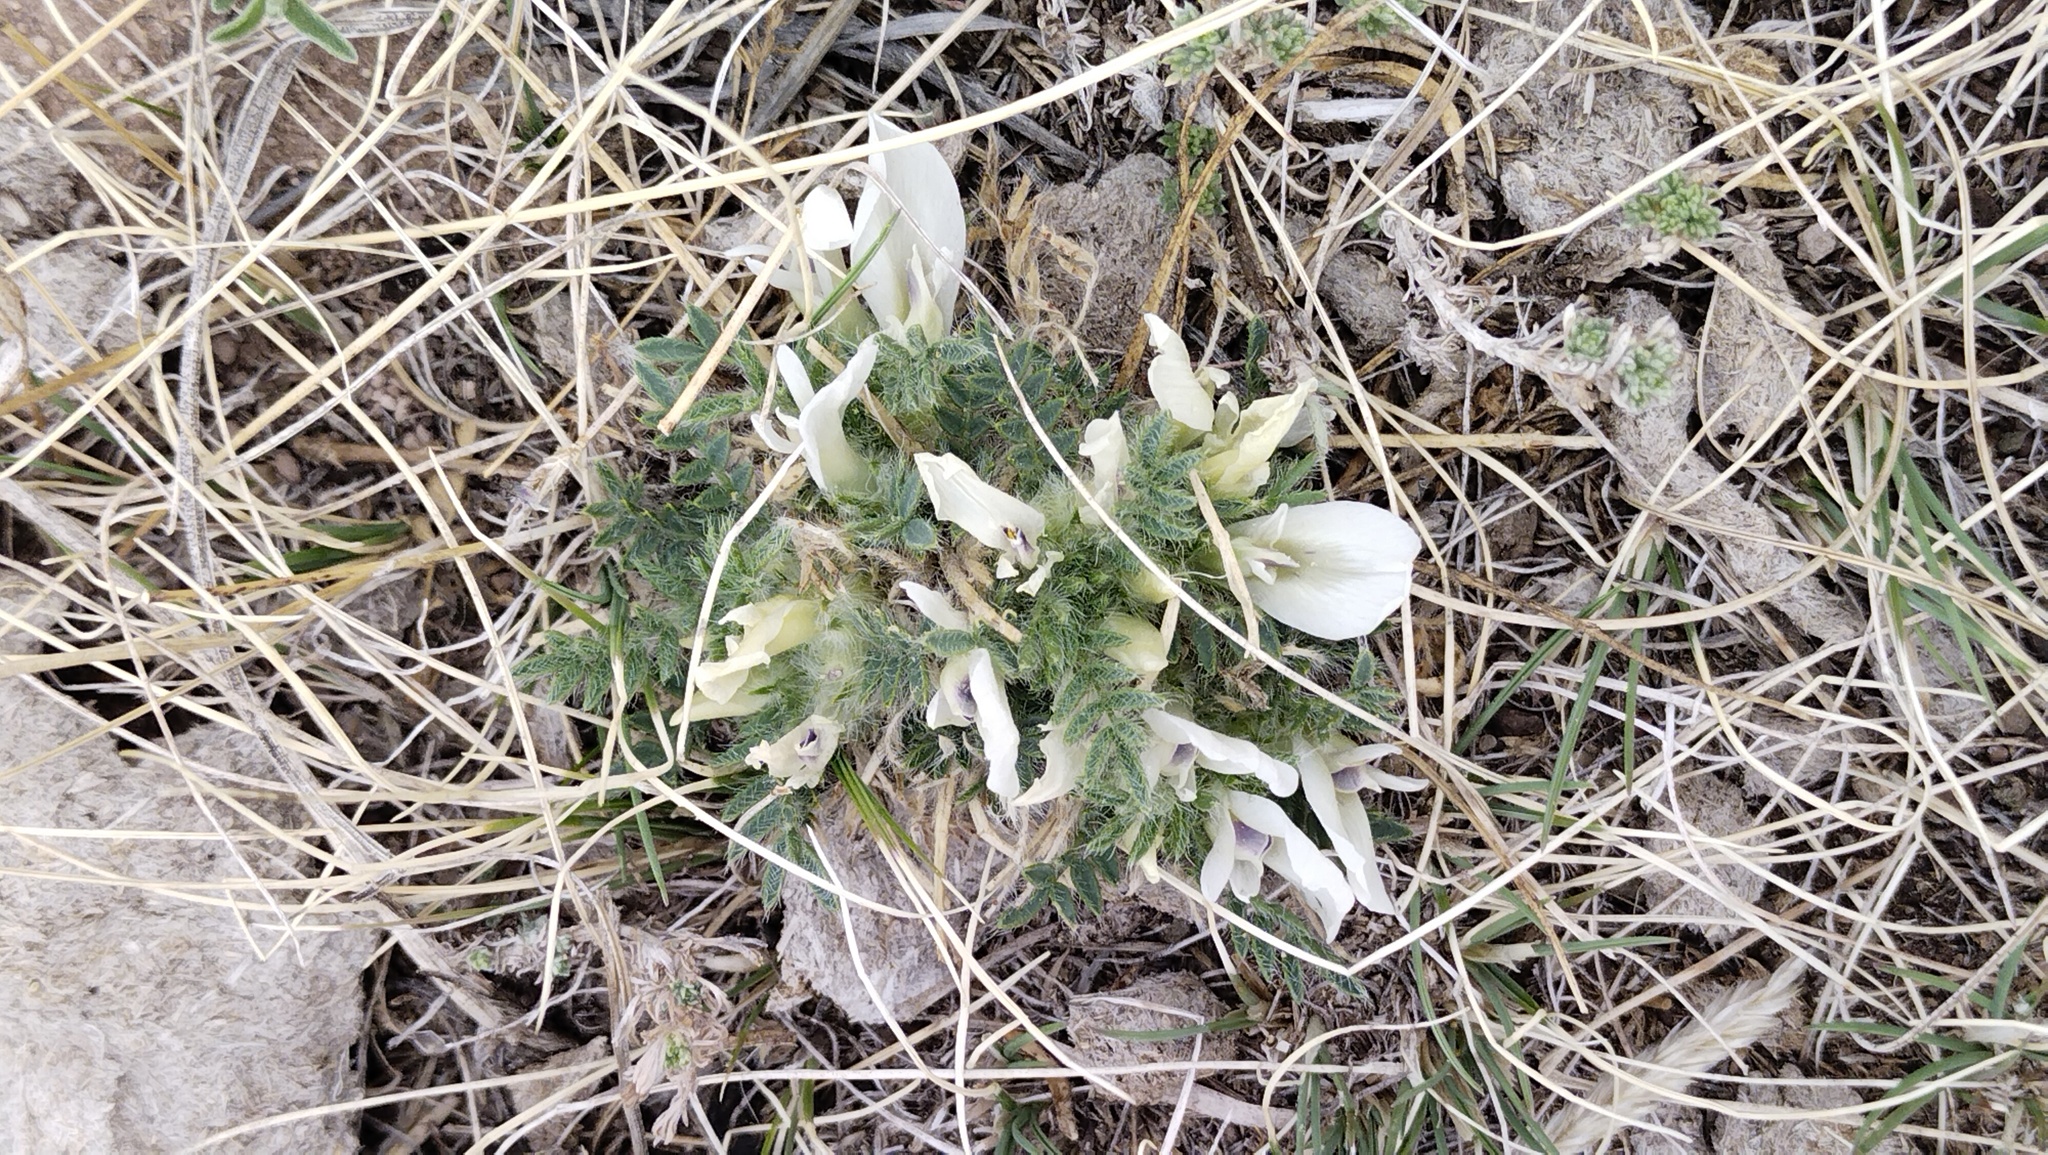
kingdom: Plantae
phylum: Tracheophyta
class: Magnoliopsida
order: Fabales
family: Fabaceae
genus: Oxytropis
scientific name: Oxytropis includens
